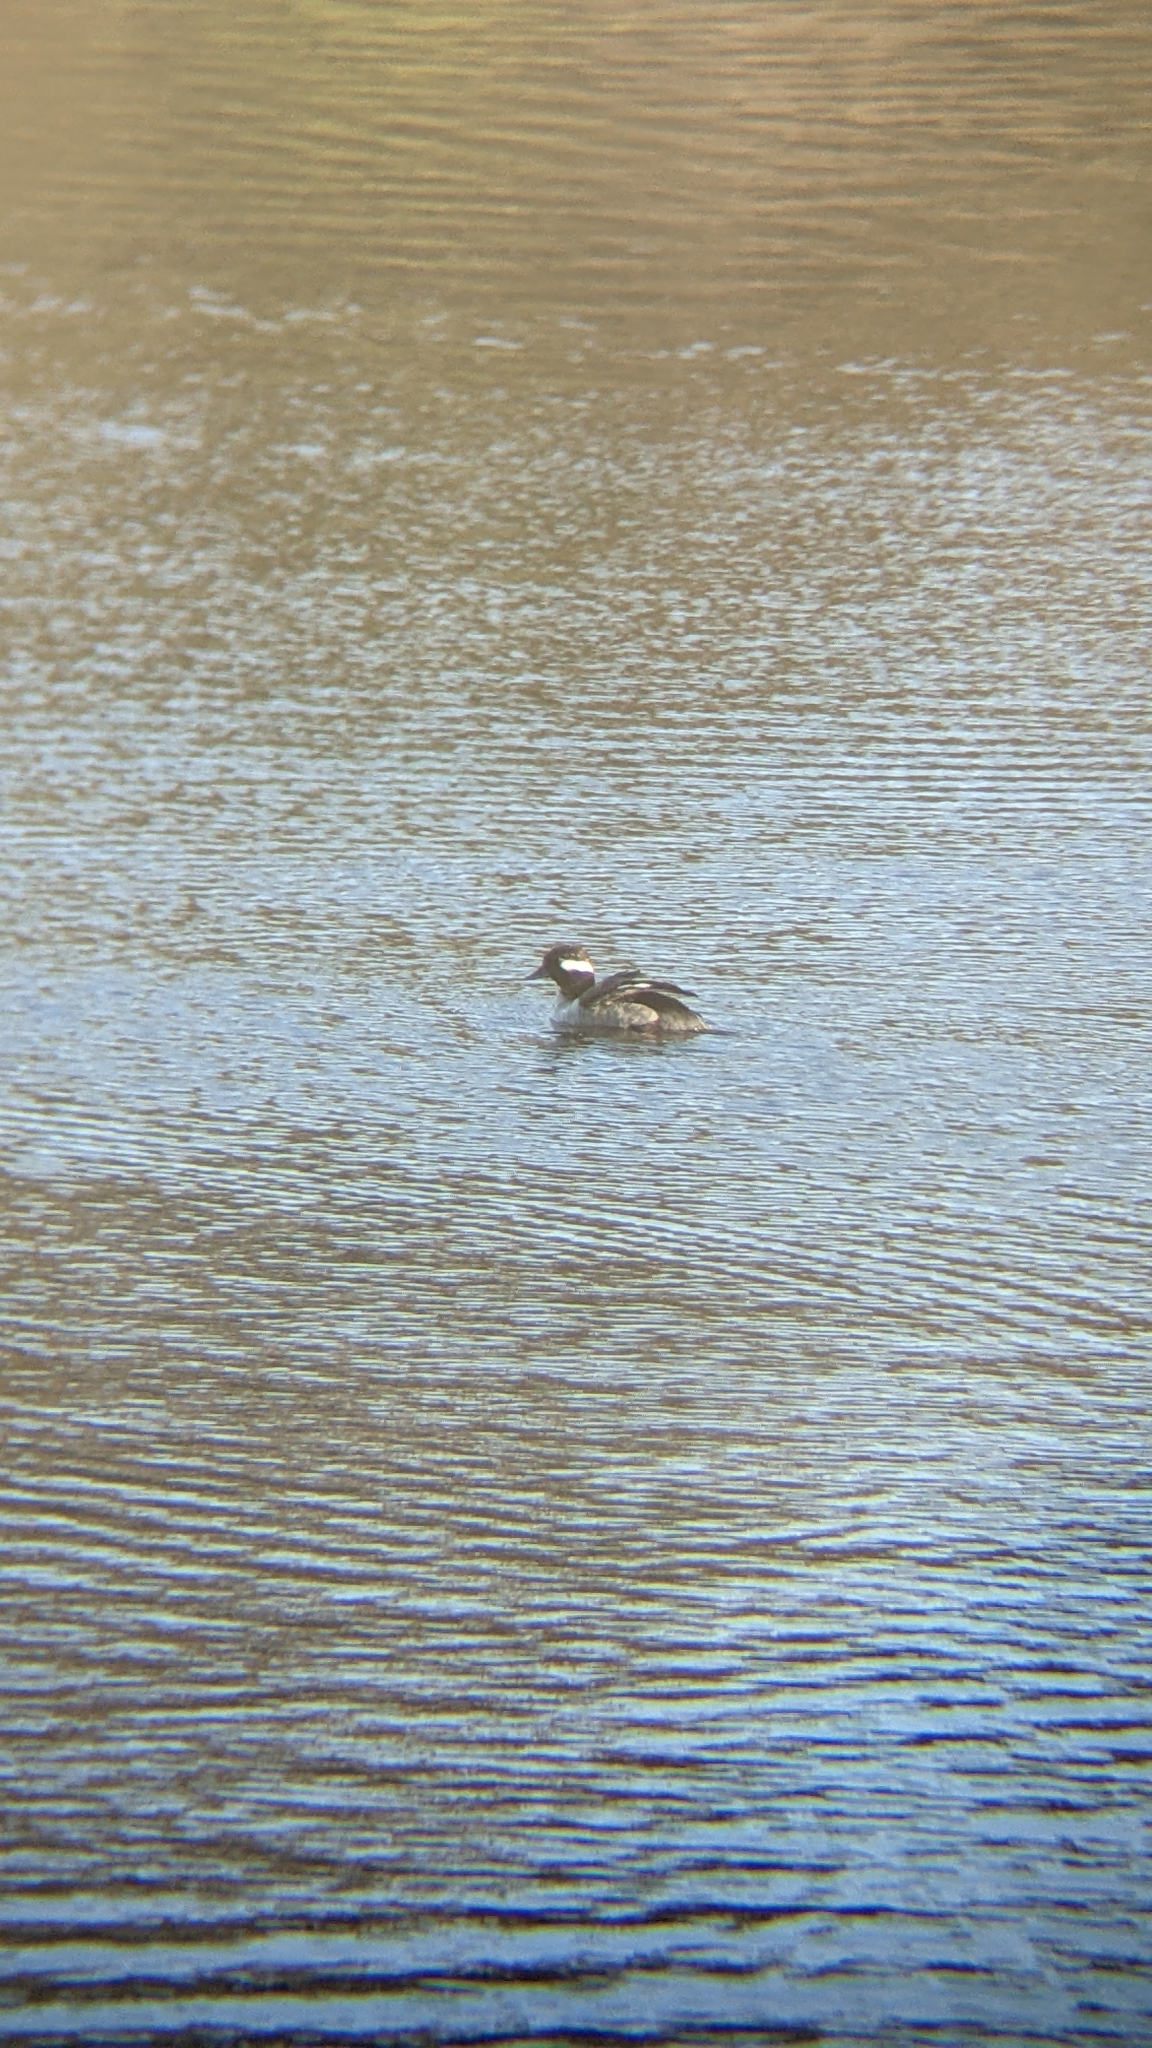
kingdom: Animalia
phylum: Chordata
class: Aves
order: Anseriformes
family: Anatidae
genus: Bucephala
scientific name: Bucephala albeola
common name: Bufflehead
